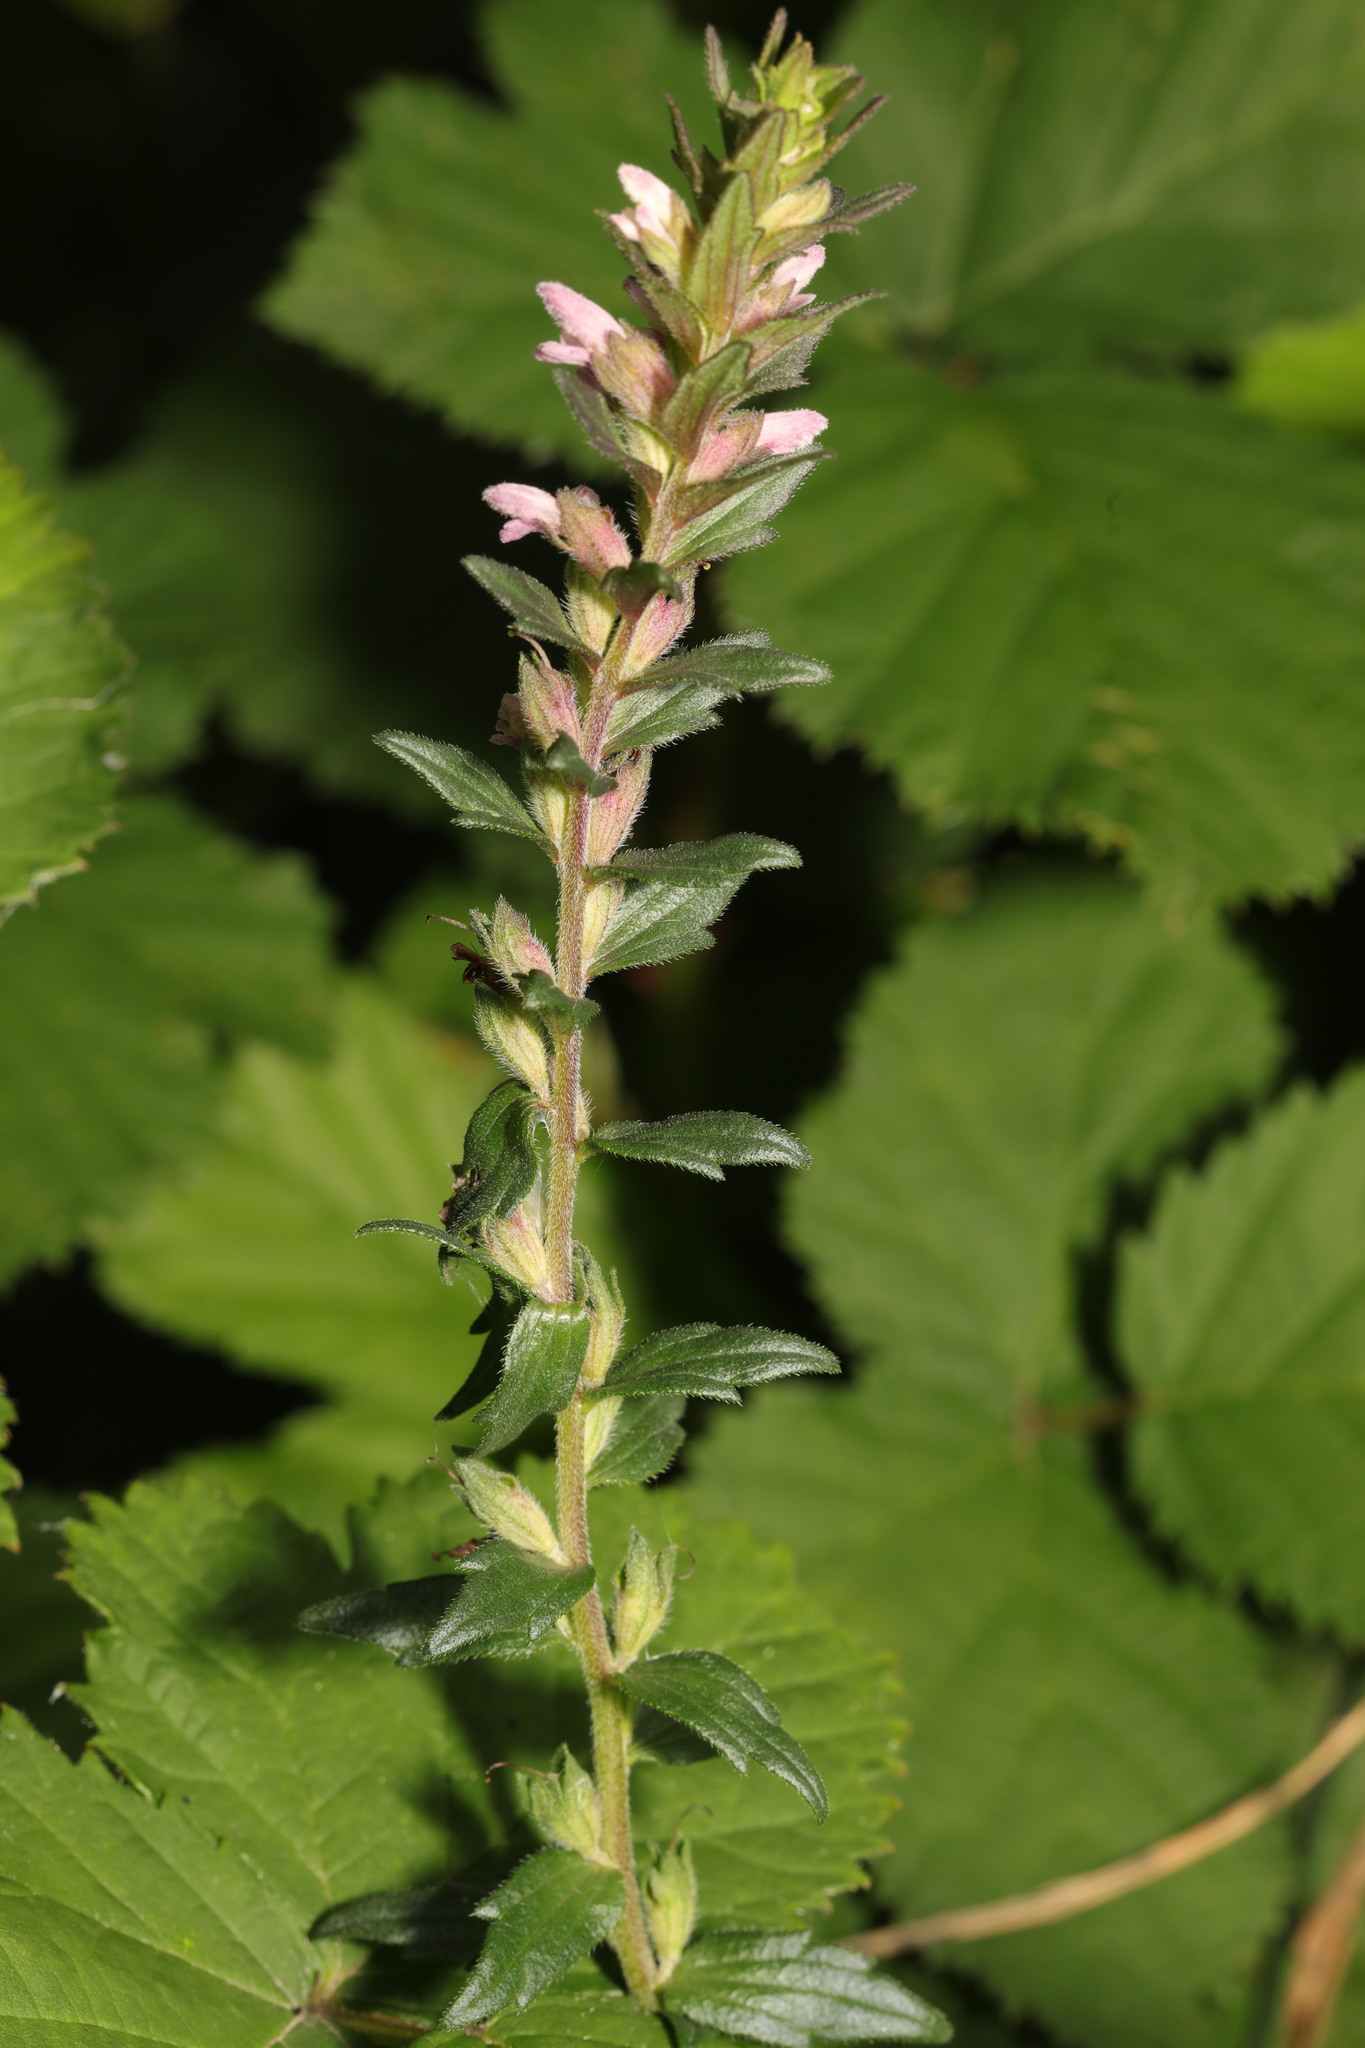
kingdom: Plantae
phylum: Tracheophyta
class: Magnoliopsida
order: Lamiales
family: Orobanchaceae
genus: Odontites
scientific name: Odontites vernus
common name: Red bartsia
